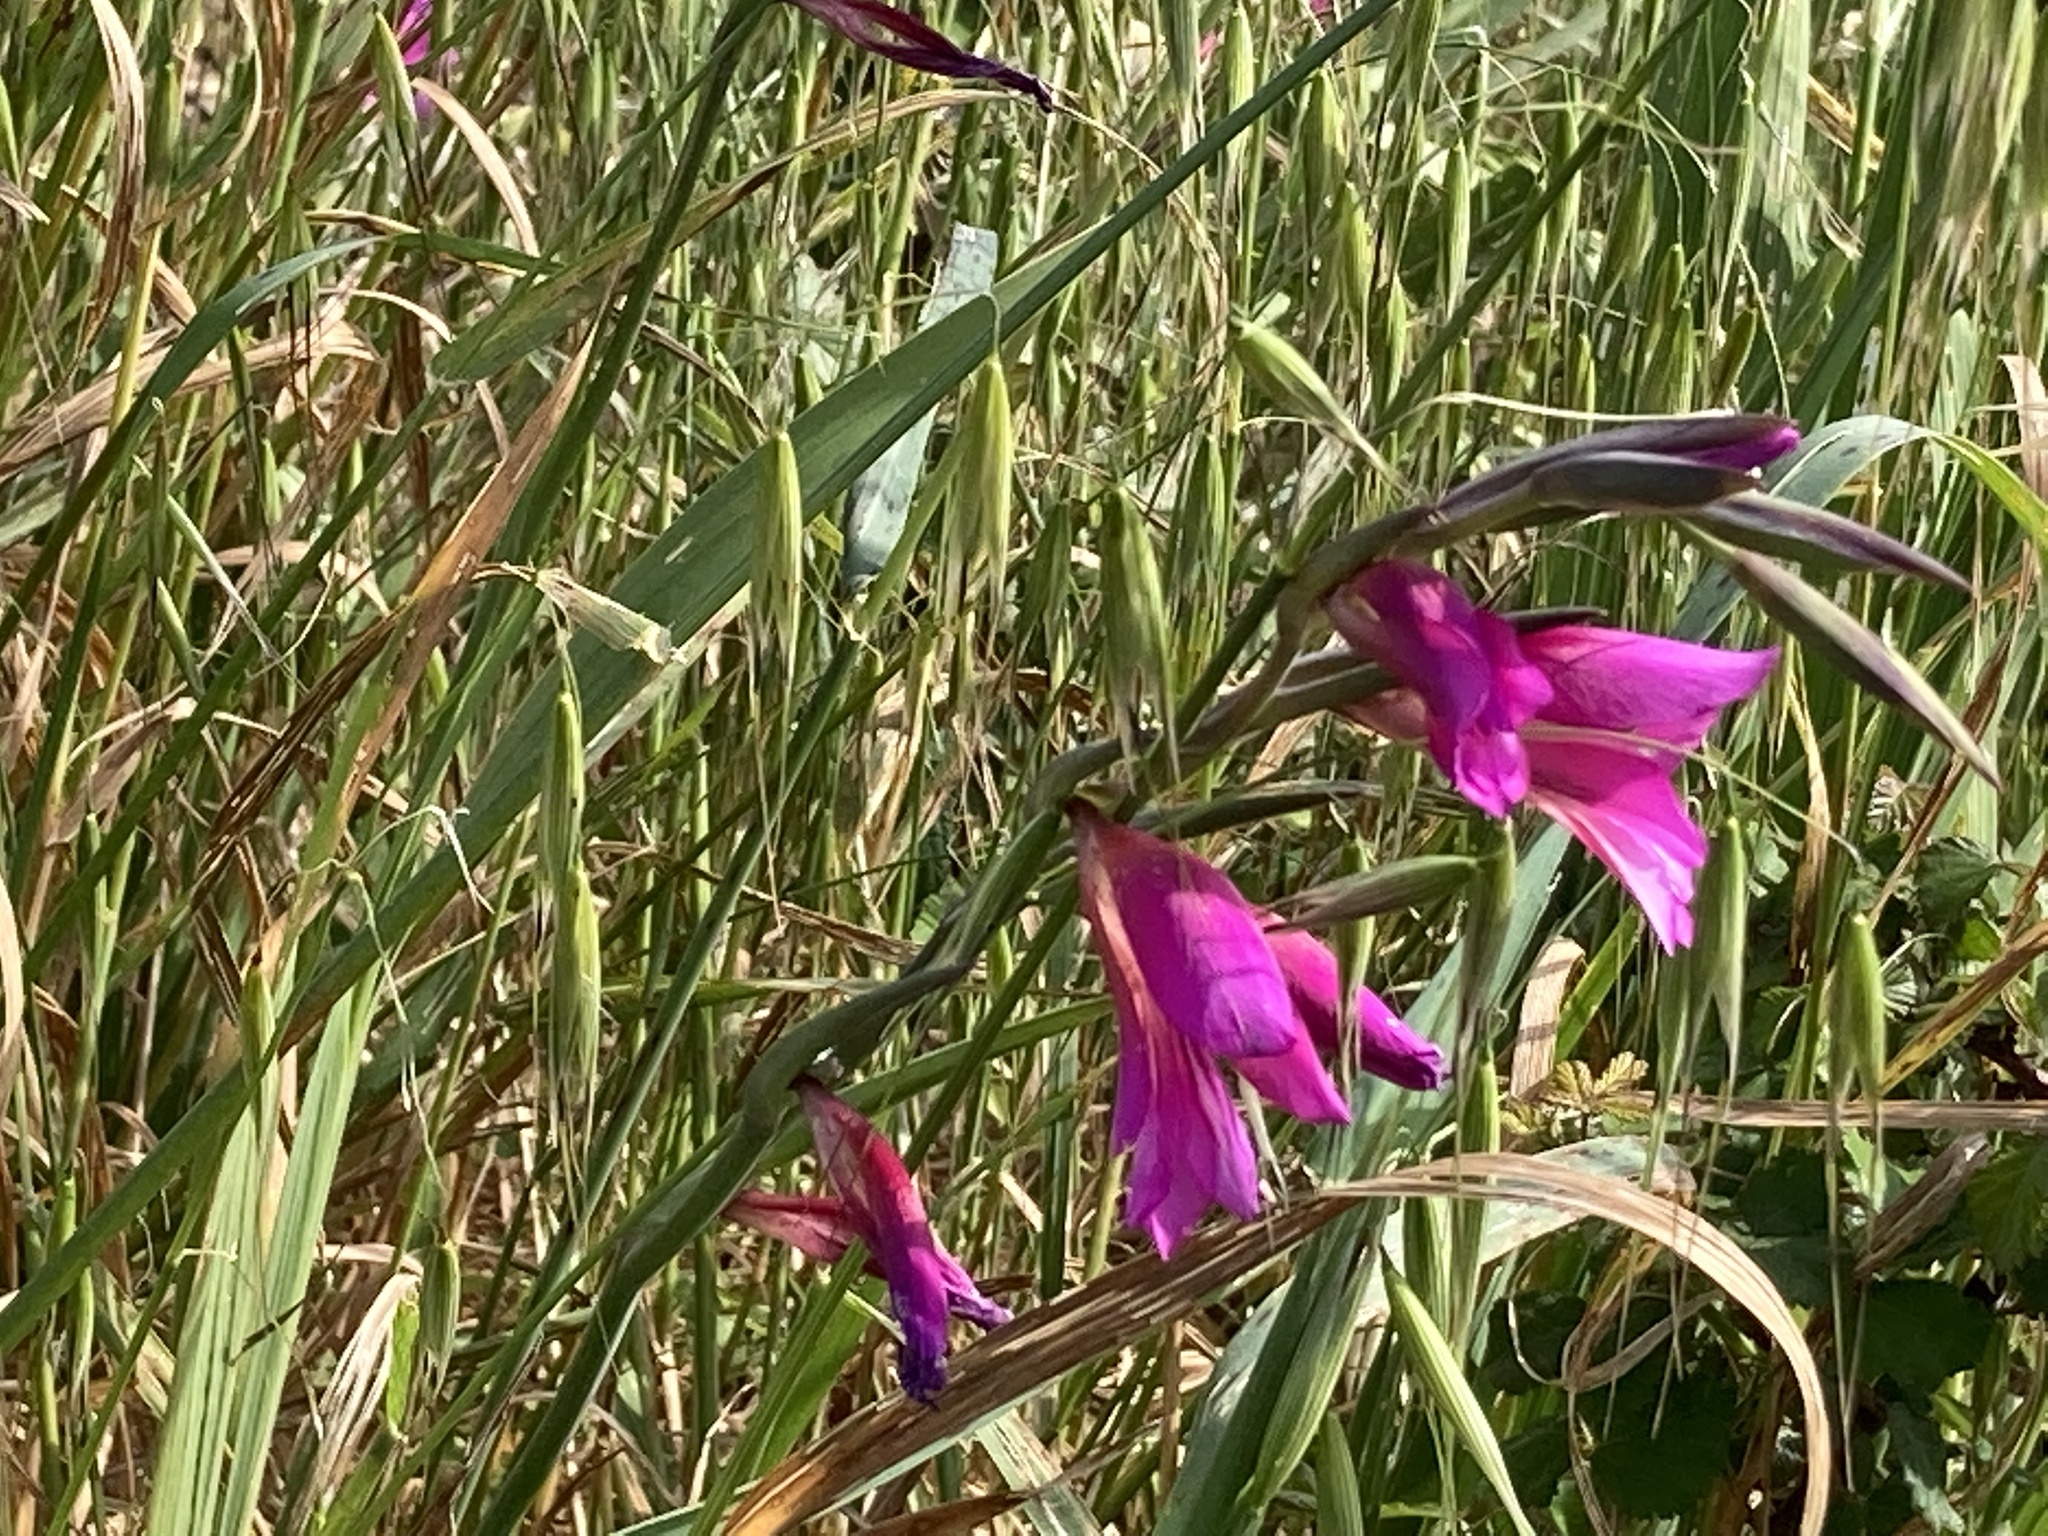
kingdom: Plantae
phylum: Tracheophyta
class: Liliopsida
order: Asparagales
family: Iridaceae
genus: Gladiolus
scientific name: Gladiolus communis
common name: Eastern gladiolus
